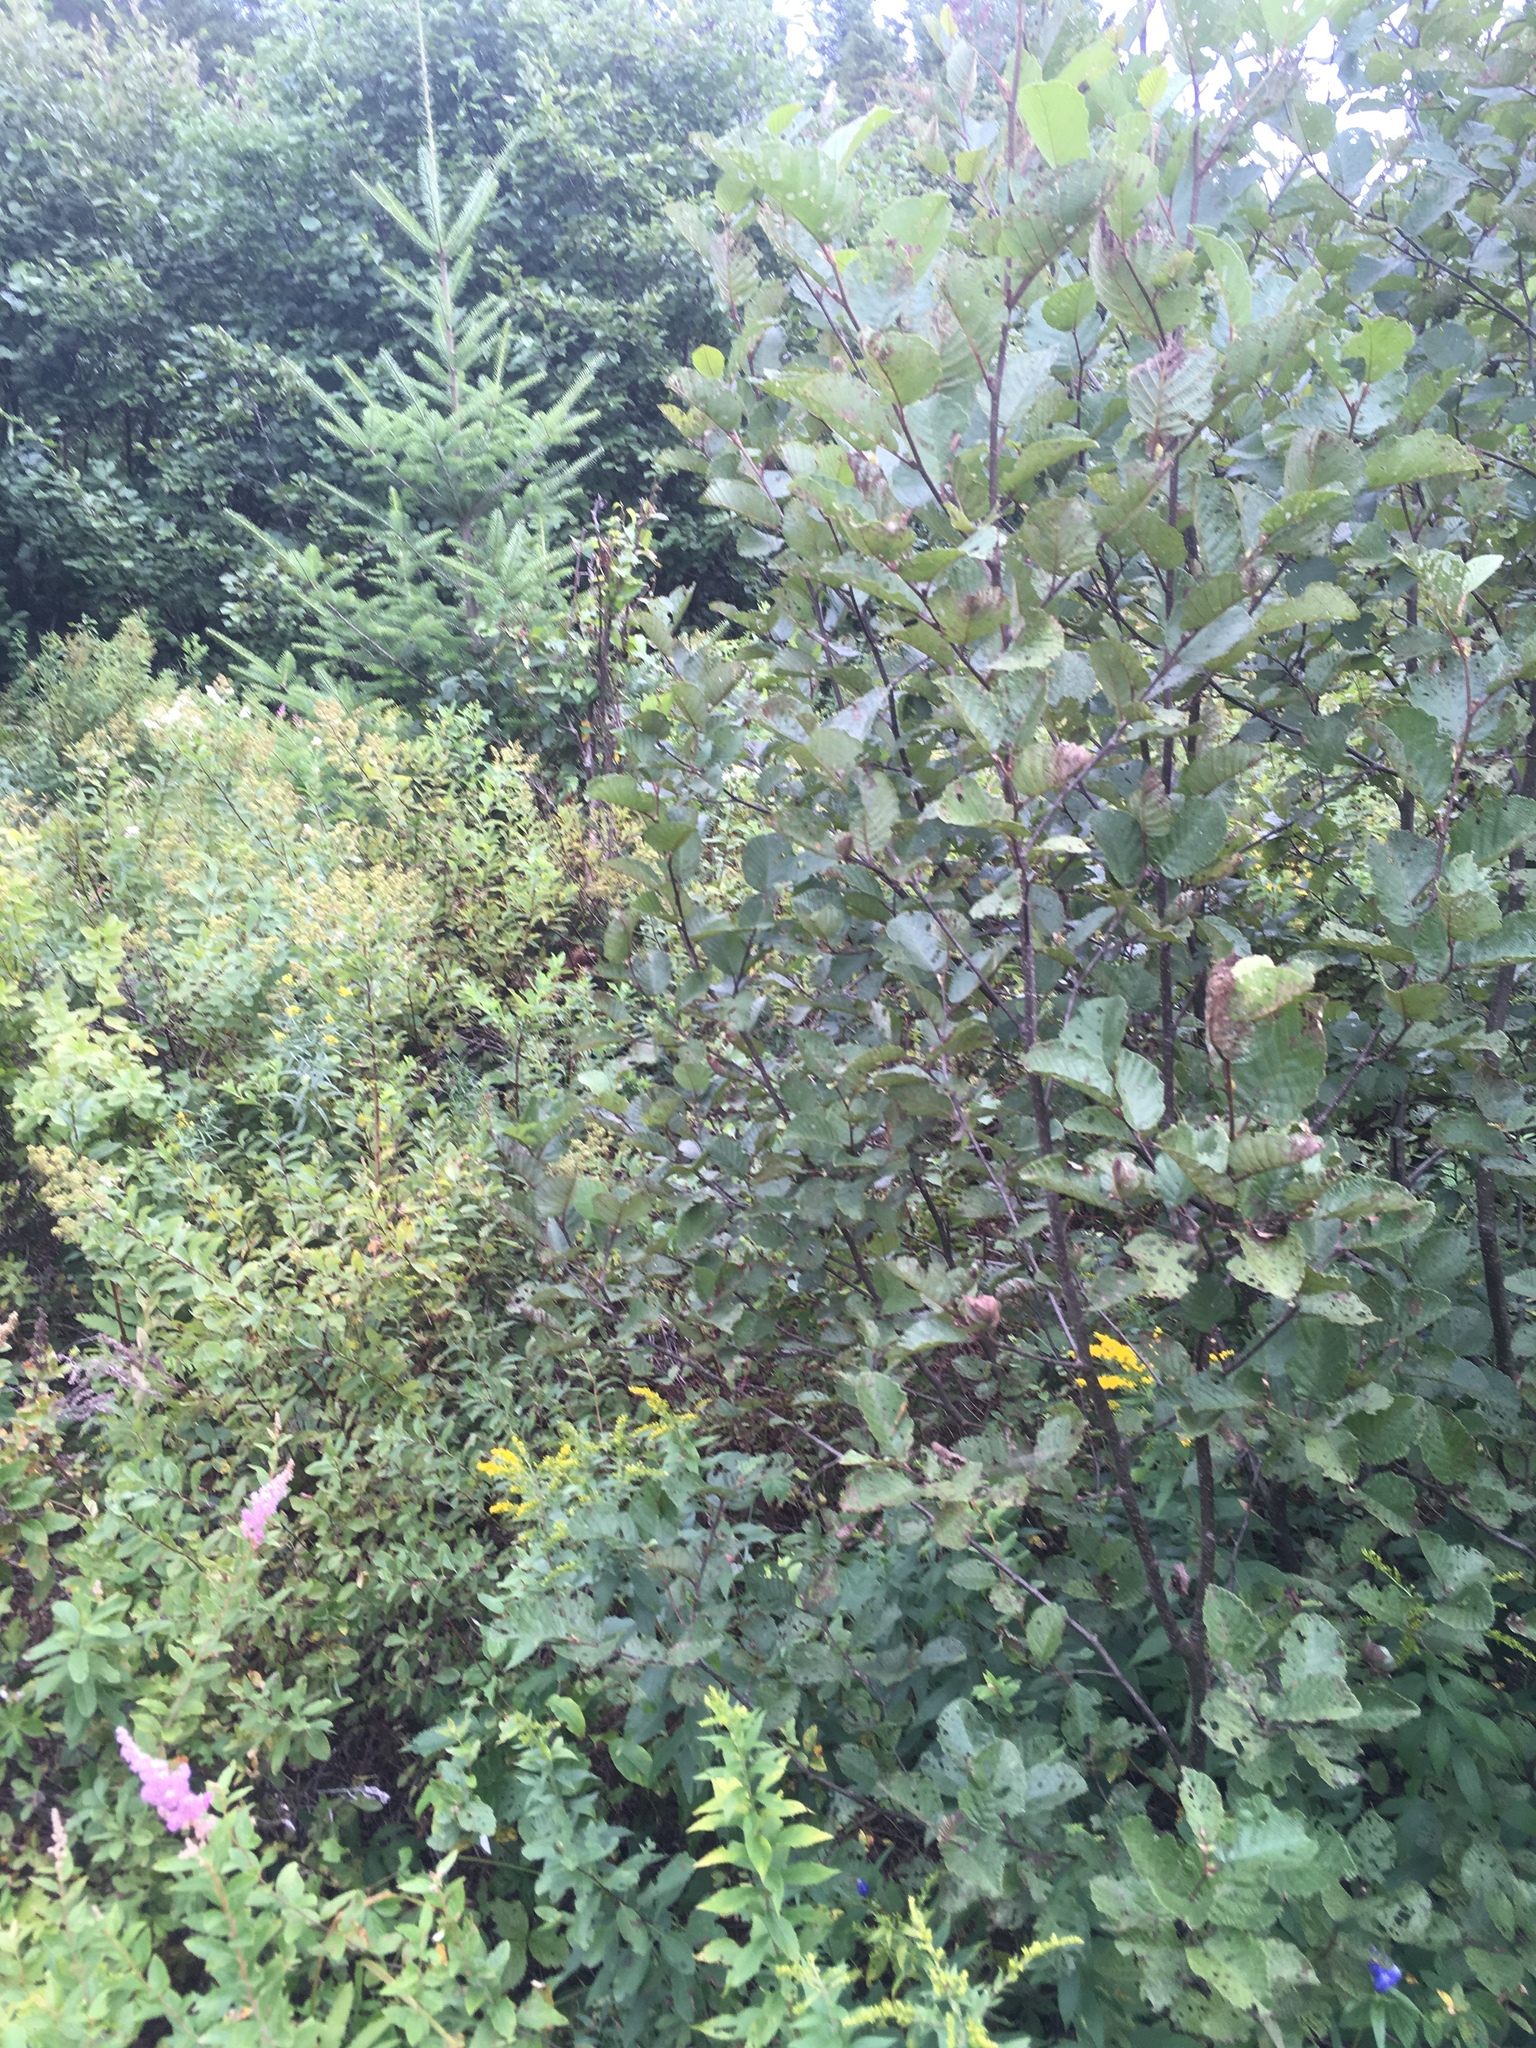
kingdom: Plantae
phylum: Tracheophyta
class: Magnoliopsida
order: Fagales
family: Betulaceae
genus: Alnus
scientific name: Alnus incana
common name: Grey alder
